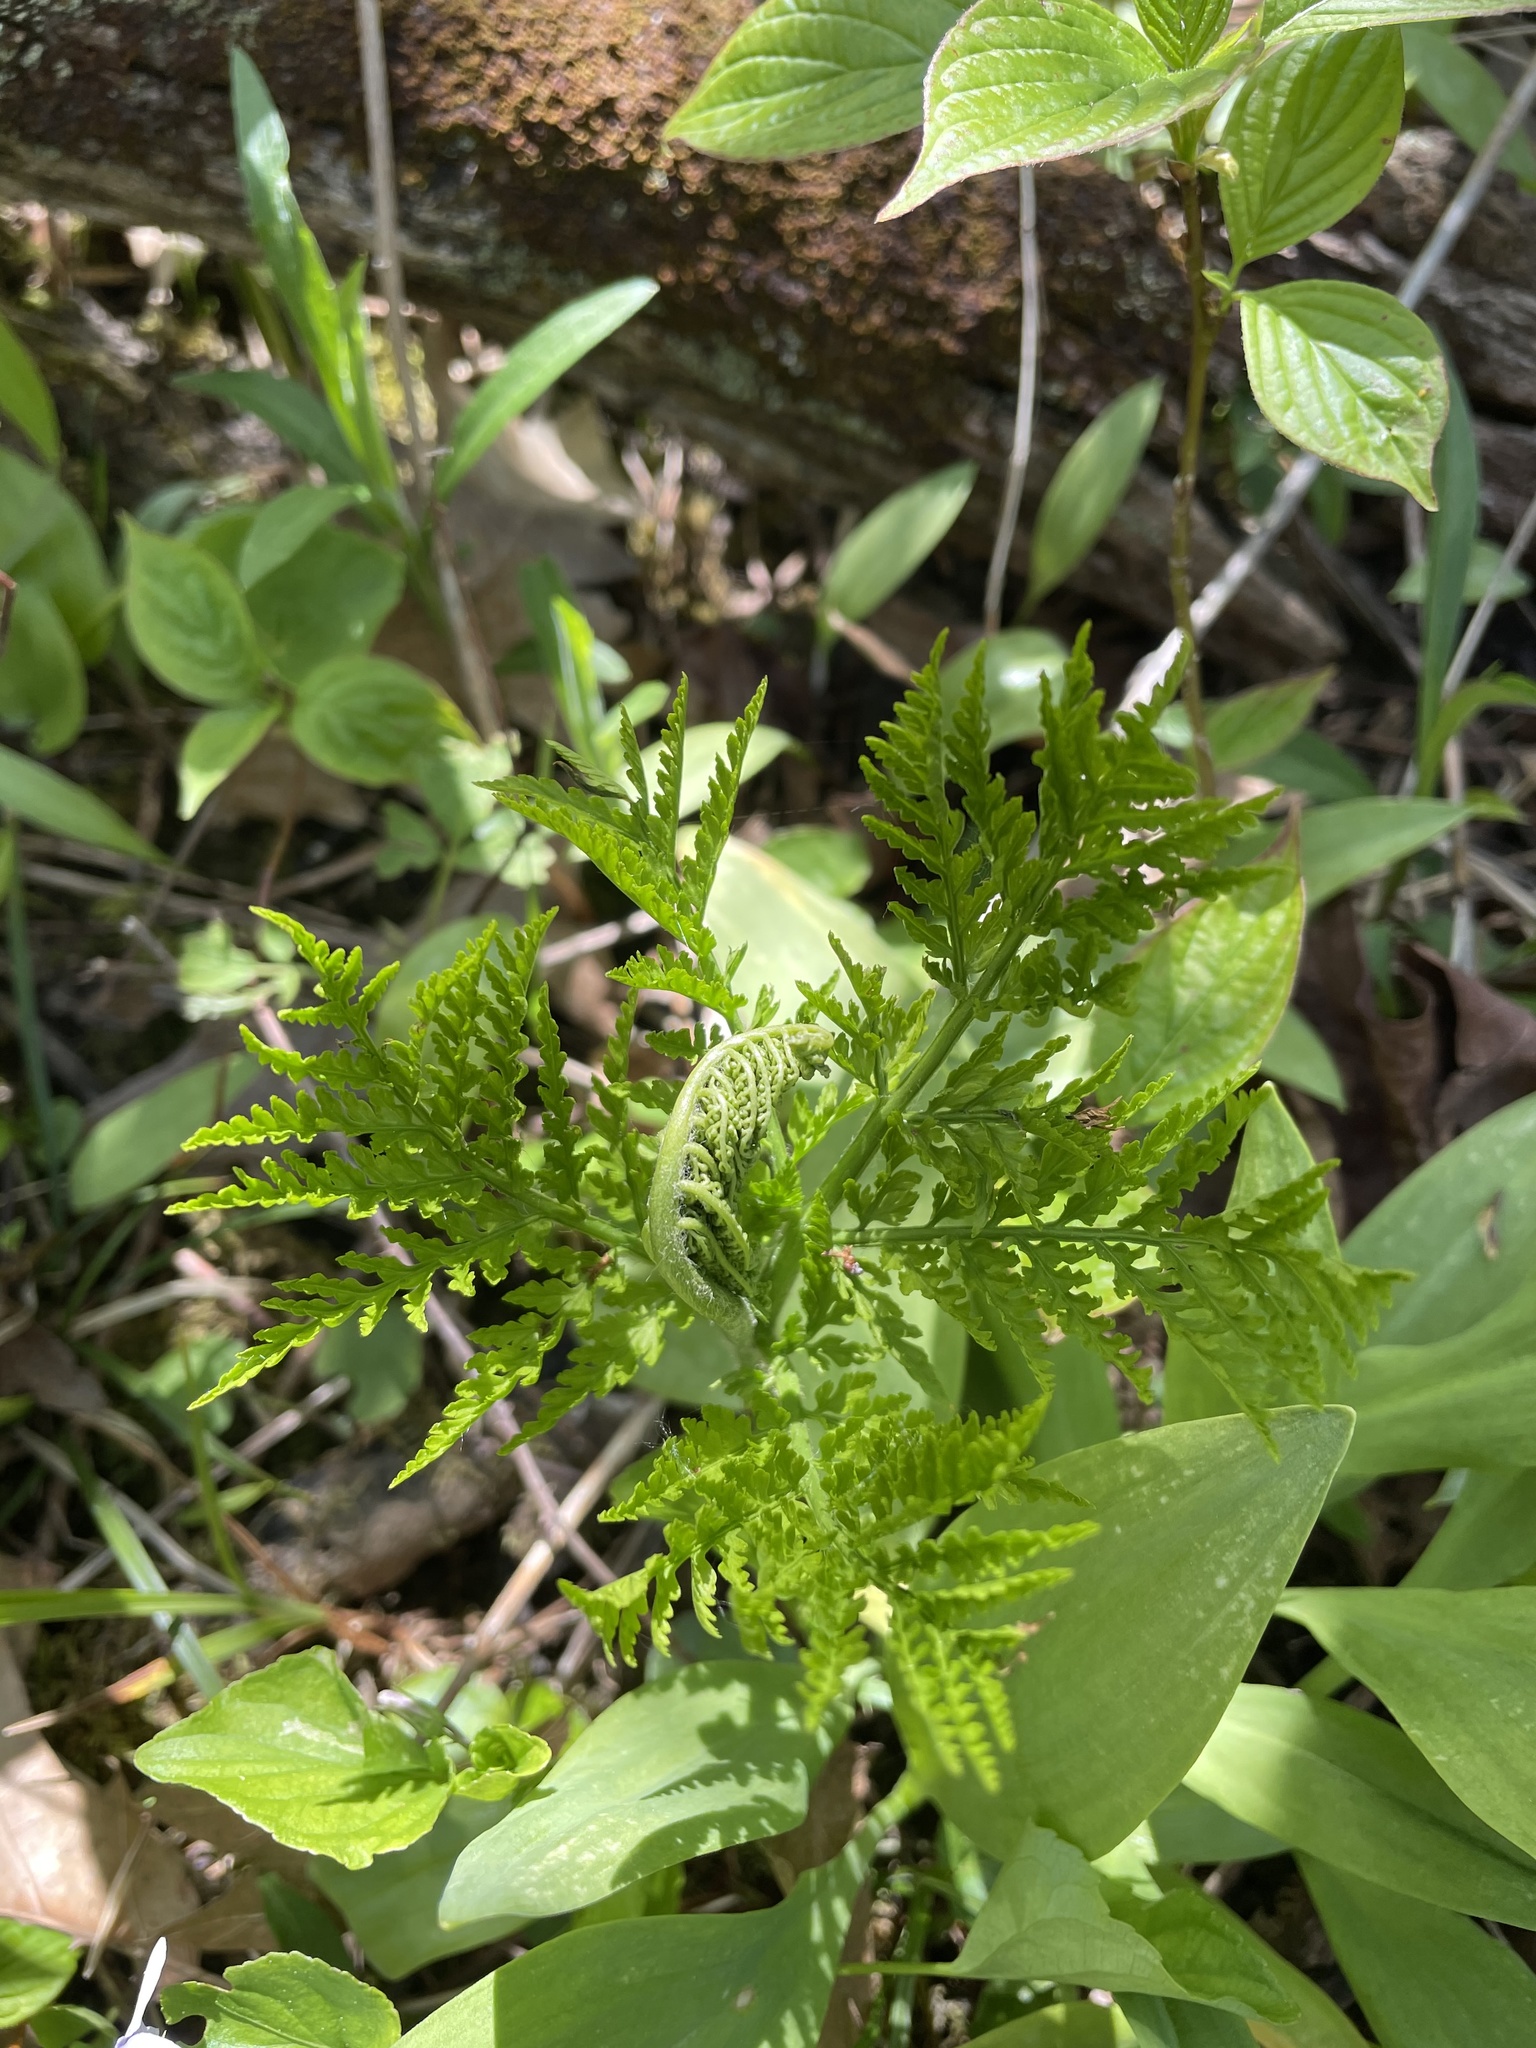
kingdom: Plantae
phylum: Tracheophyta
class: Polypodiopsida
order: Ophioglossales
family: Ophioglossaceae
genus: Botrypus
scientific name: Botrypus virginianus
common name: Common grapefern
